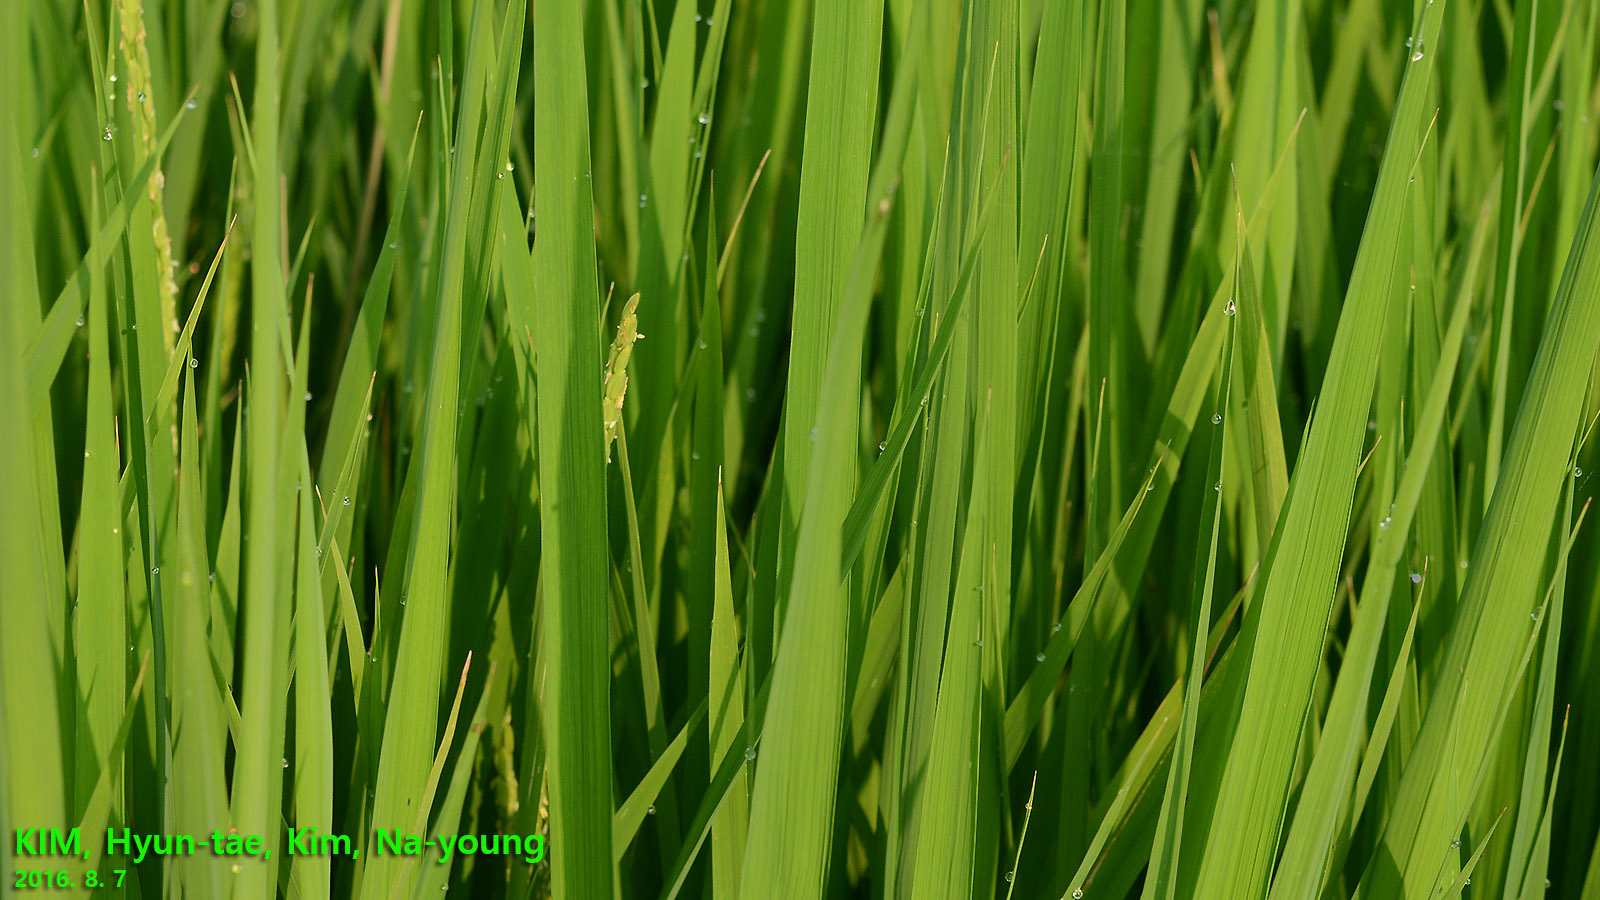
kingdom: Plantae
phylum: Tracheophyta
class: Liliopsida
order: Poales
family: Poaceae
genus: Oryza
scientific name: Oryza sativa
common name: Rice
